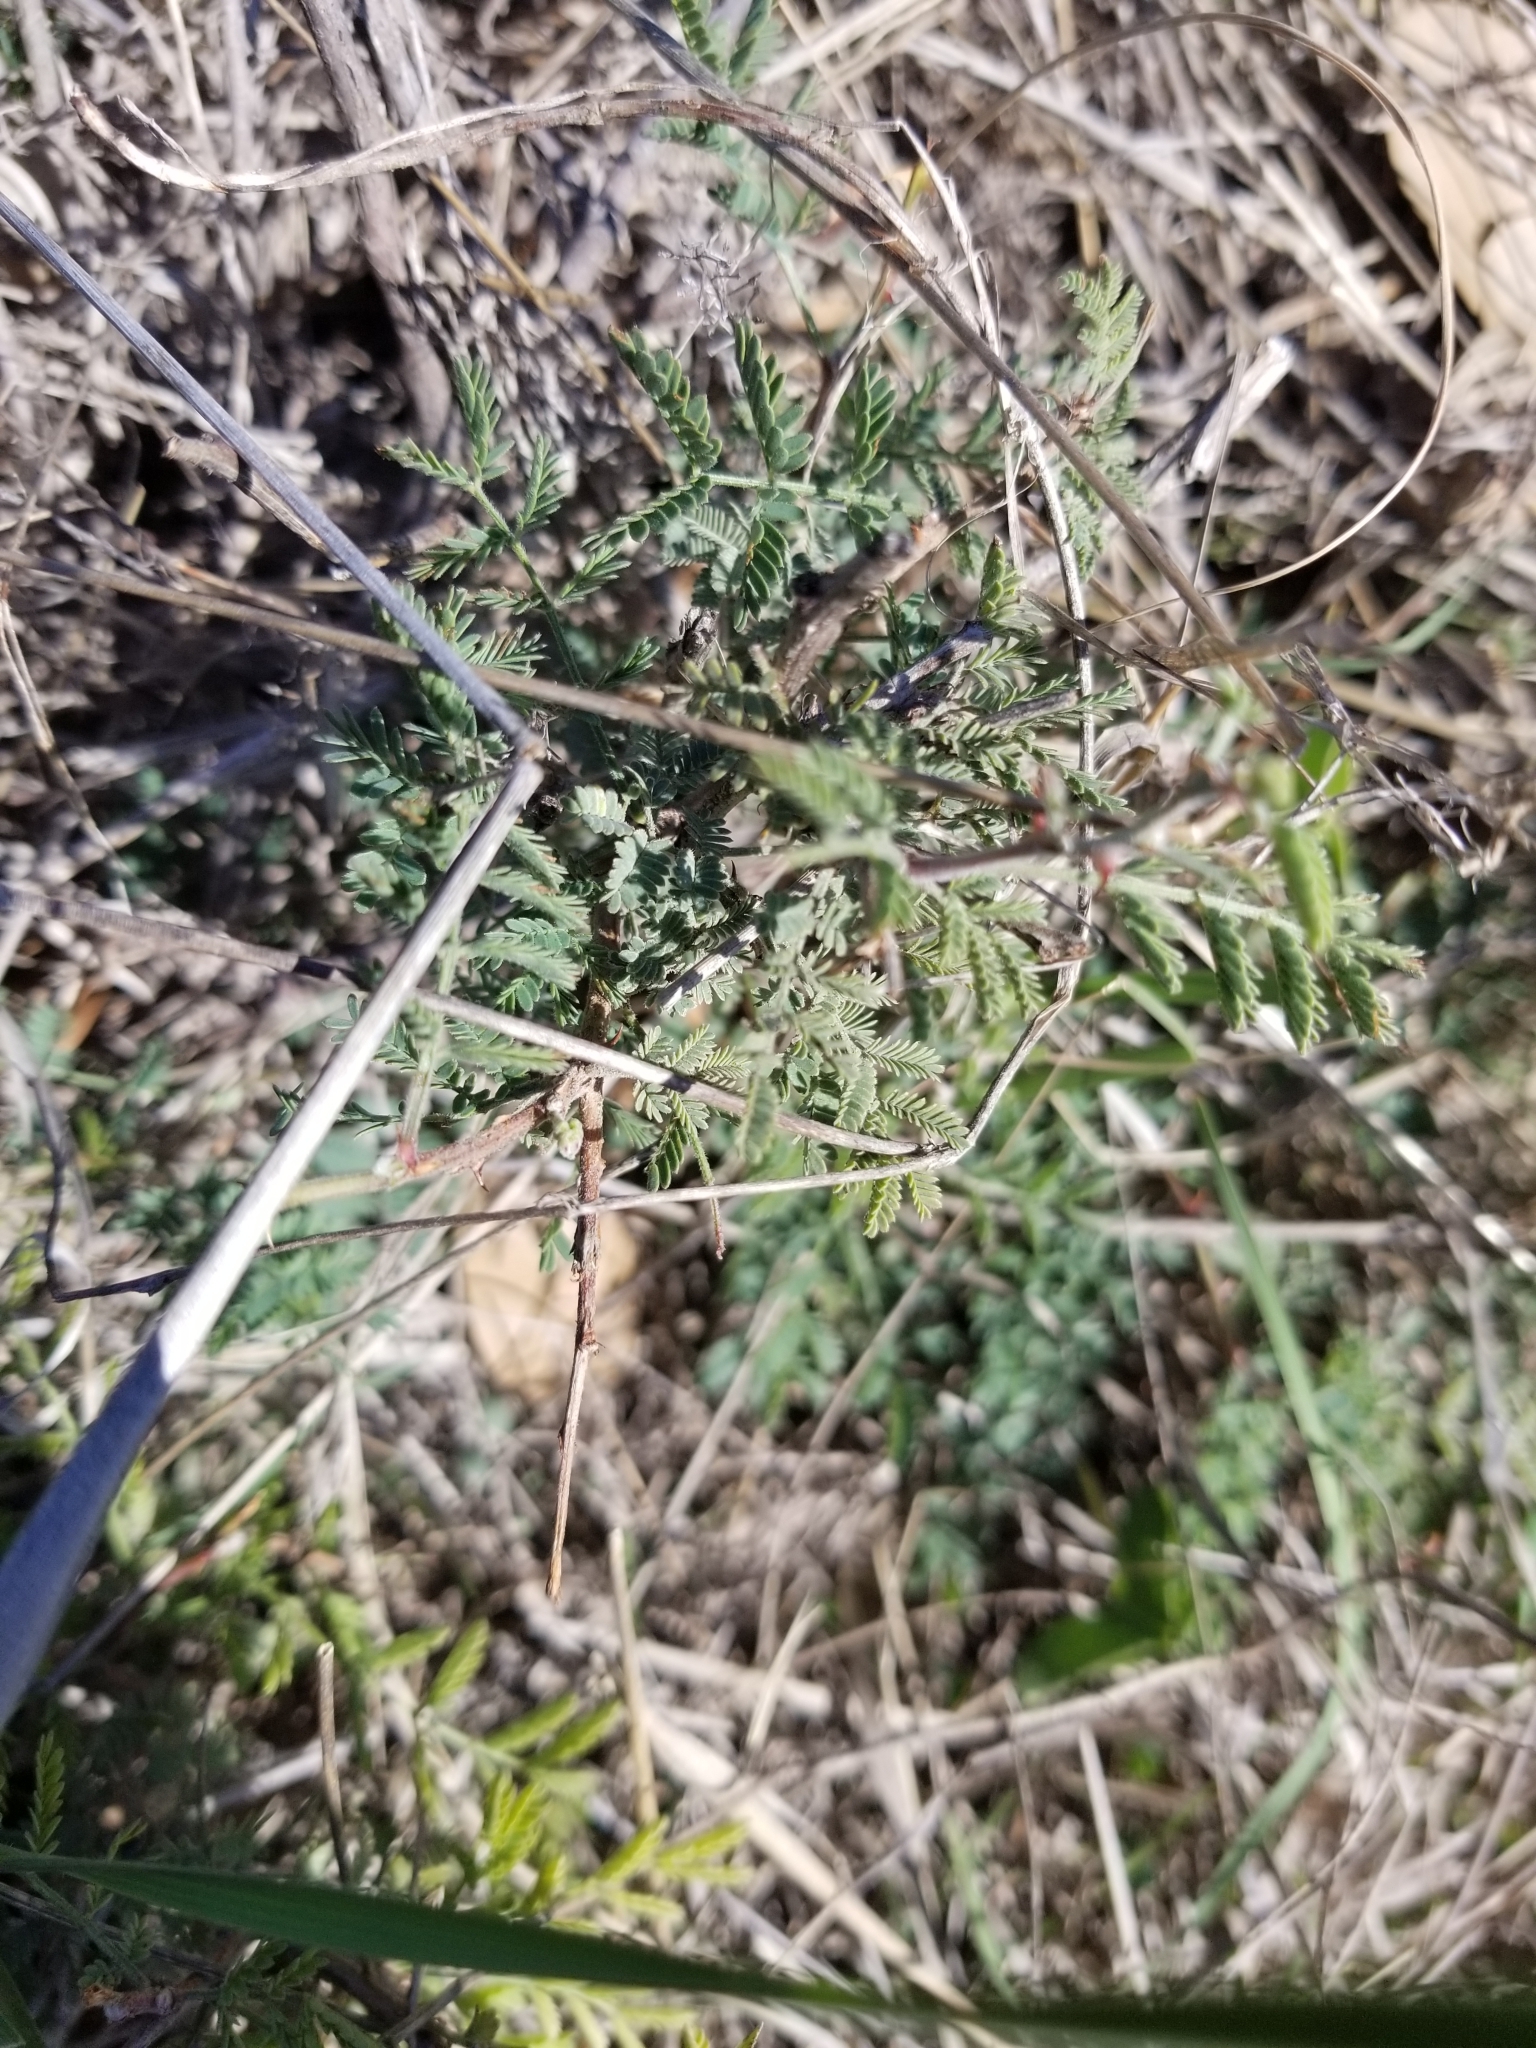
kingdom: Plantae
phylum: Tracheophyta
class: Magnoliopsida
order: Fabales
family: Fabaceae
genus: Mimosa
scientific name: Mimosa aculeaticarpa
